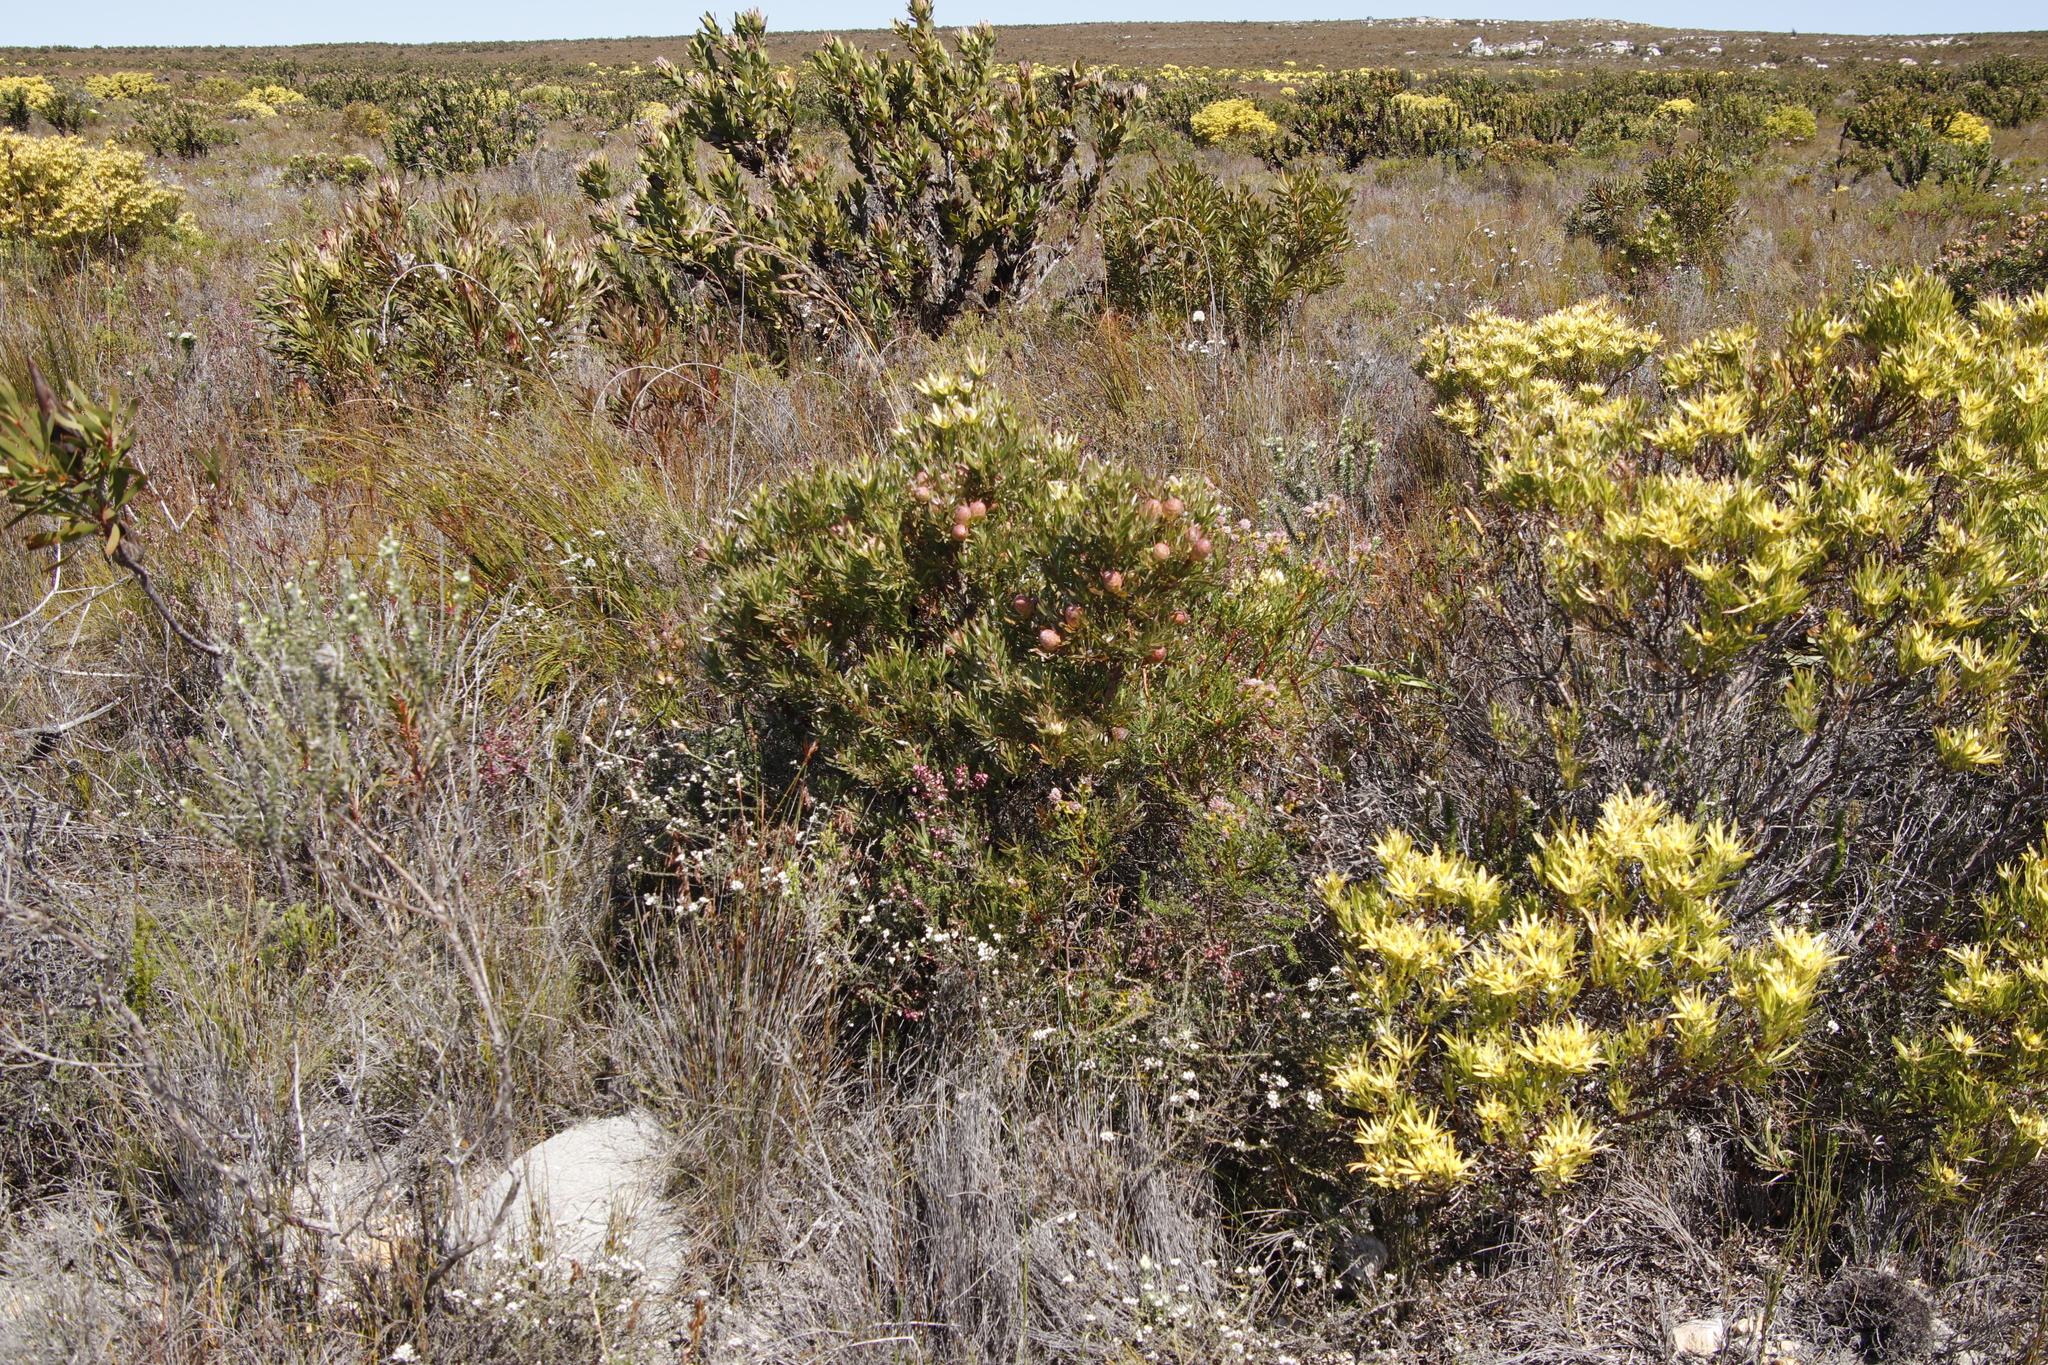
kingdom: Plantae
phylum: Tracheophyta
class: Magnoliopsida
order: Proteales
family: Proteaceae
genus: Leucadendron
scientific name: Leucadendron xanthoconus
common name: Sickle-leaf conebush
